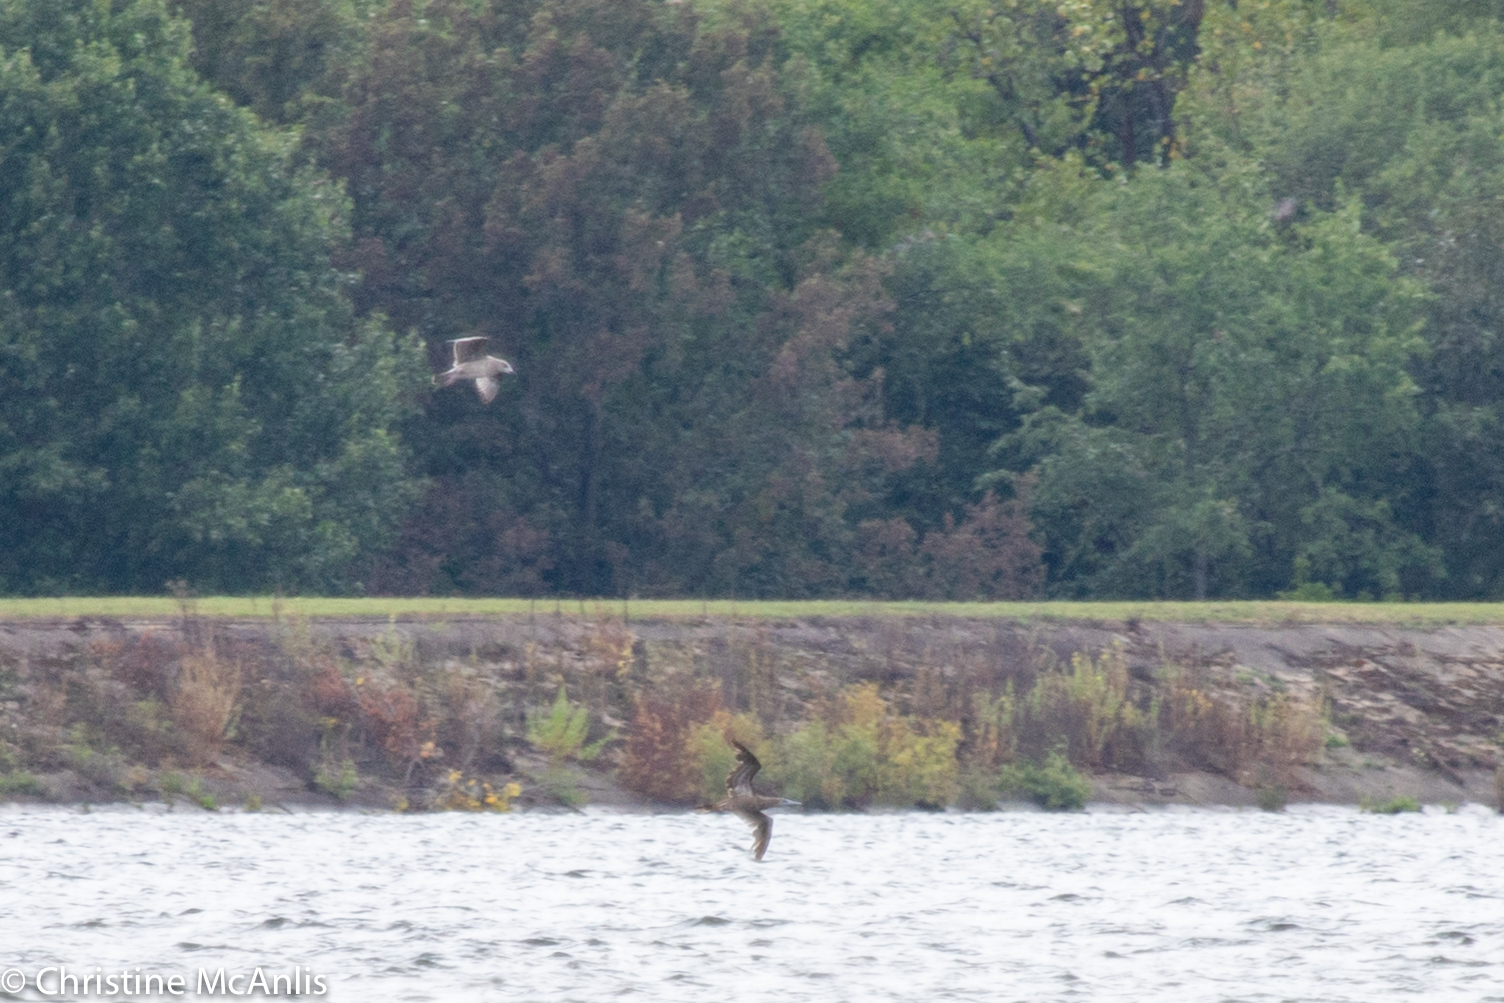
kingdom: Animalia
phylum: Chordata
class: Aves
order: Suliformes
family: Sulidae
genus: Sula
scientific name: Sula leucogaster
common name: Brown booby
